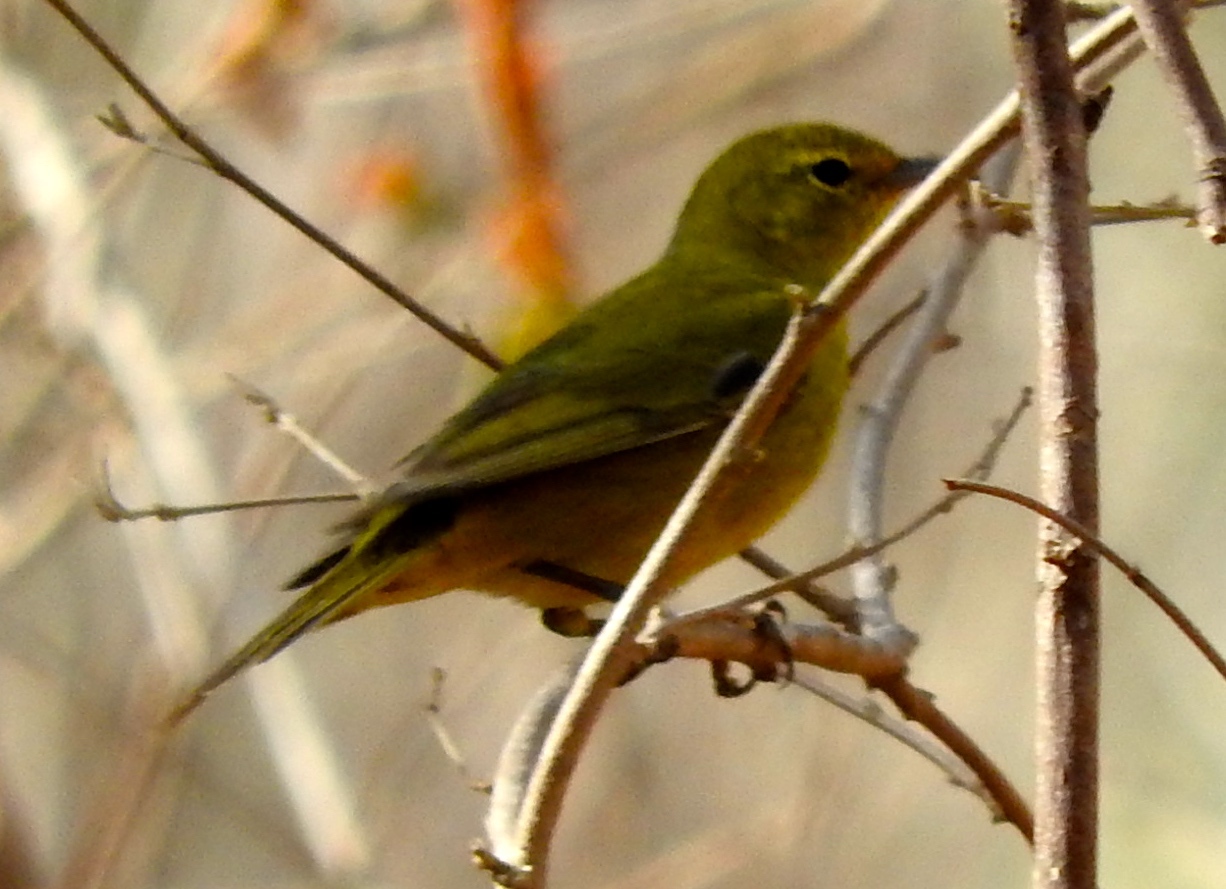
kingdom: Animalia
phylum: Chordata
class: Aves
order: Passeriformes
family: Parulidae
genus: Leiothlypis
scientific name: Leiothlypis celata
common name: Orange-crowned warbler
